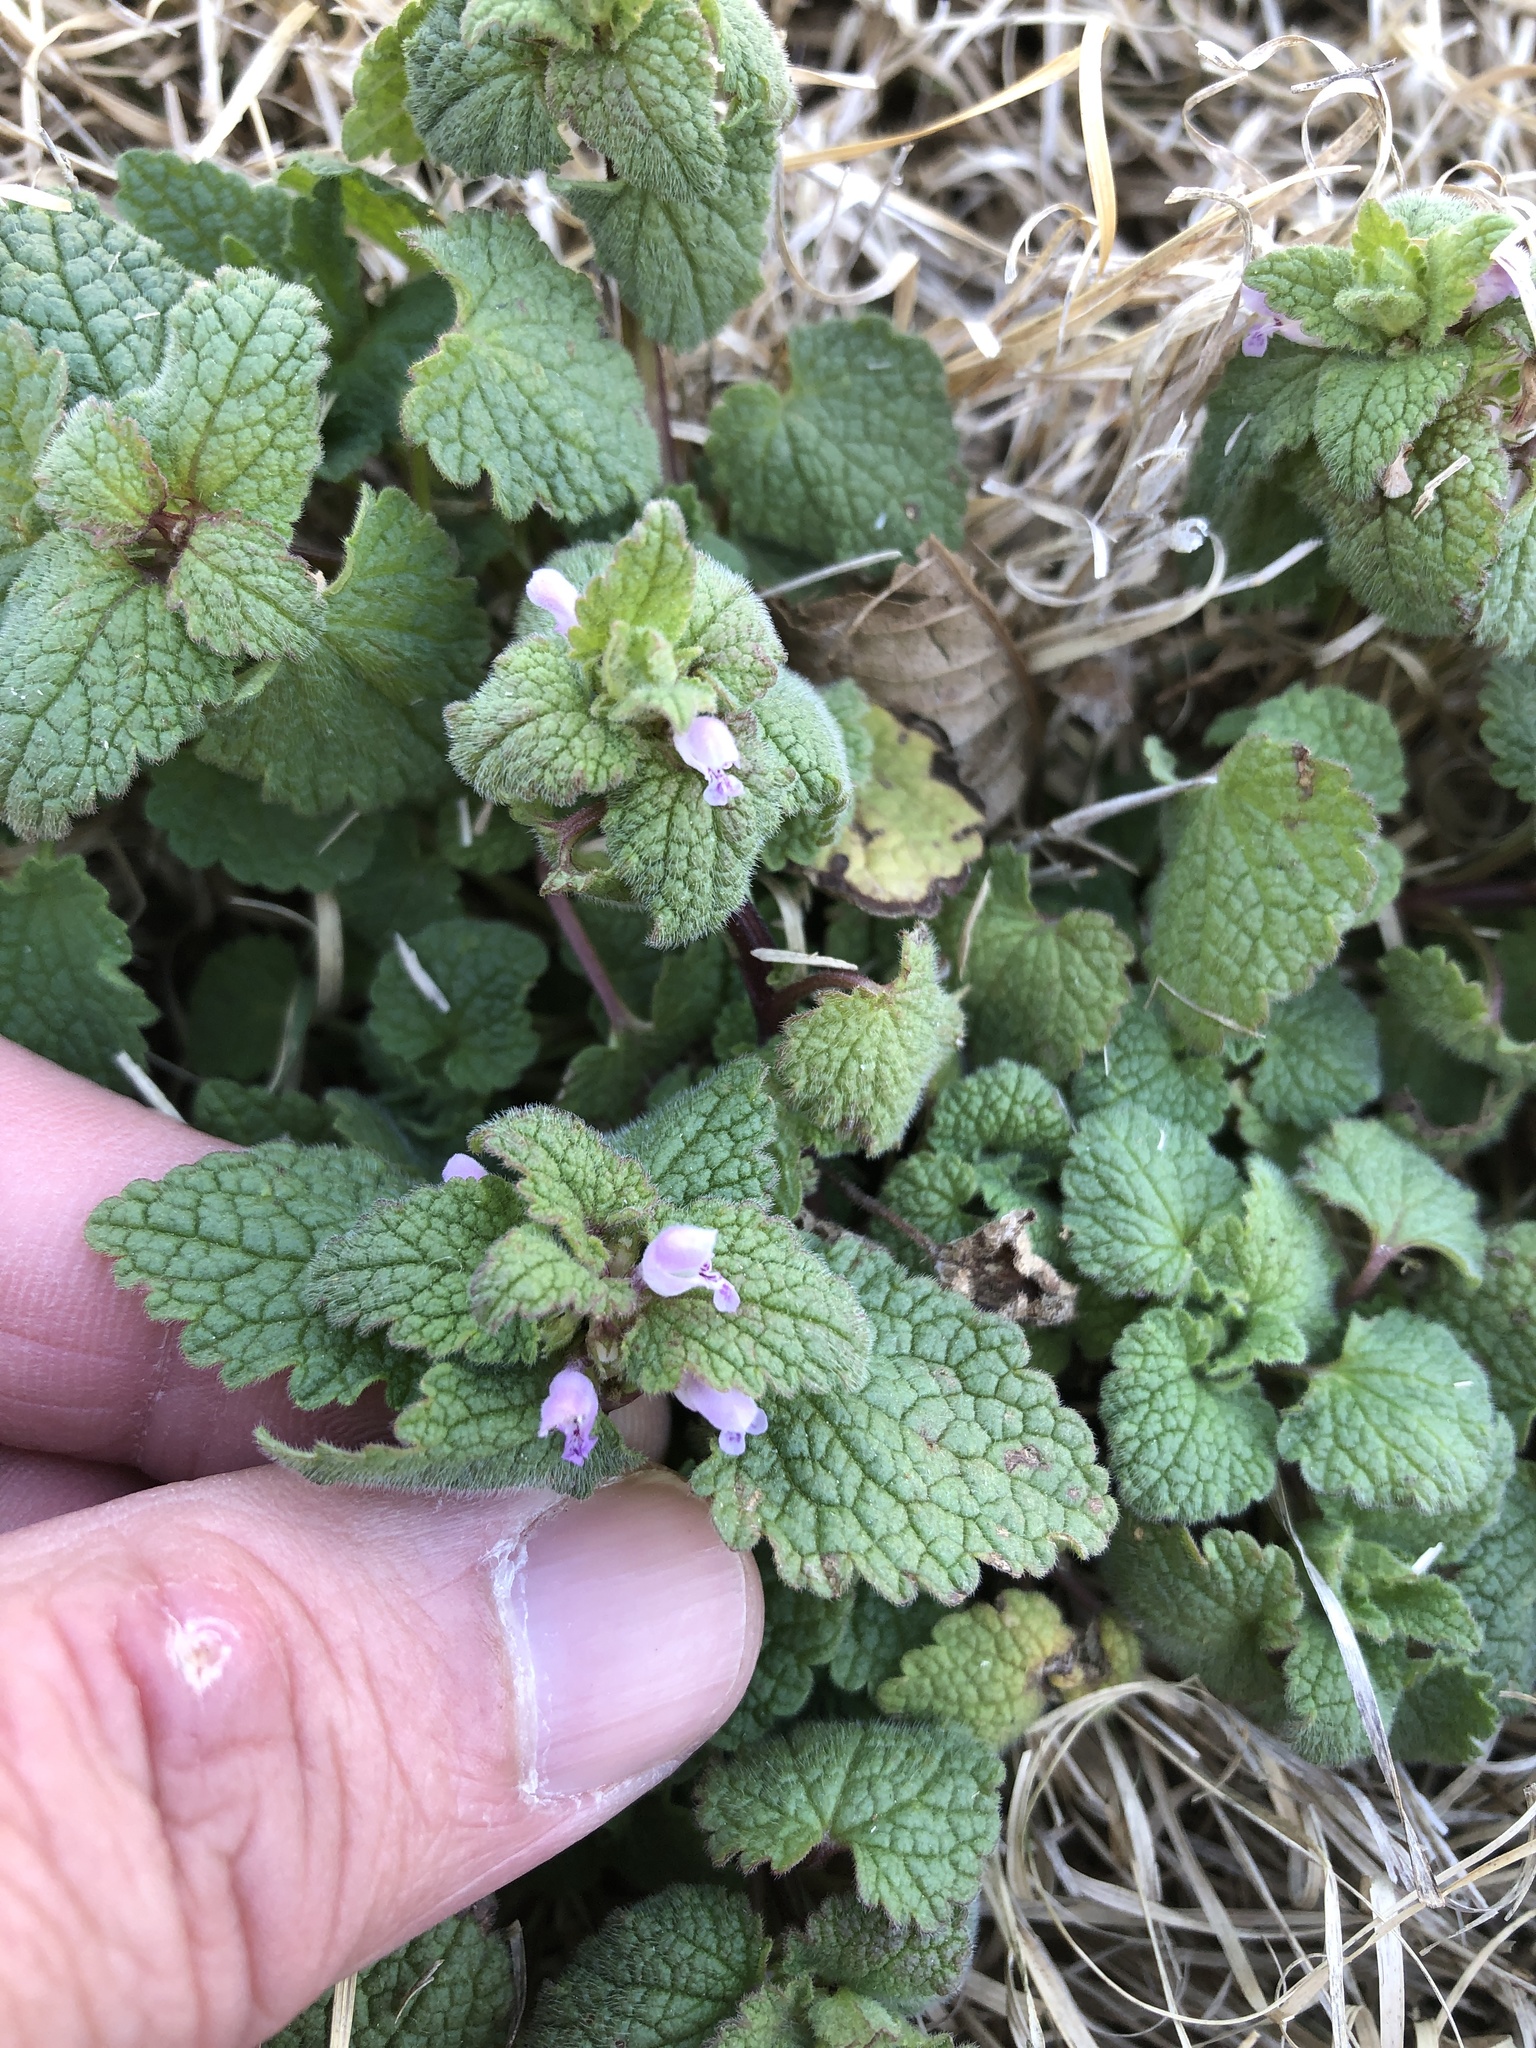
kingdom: Plantae
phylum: Tracheophyta
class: Magnoliopsida
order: Lamiales
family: Lamiaceae
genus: Lamium
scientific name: Lamium purpureum
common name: Red dead-nettle
